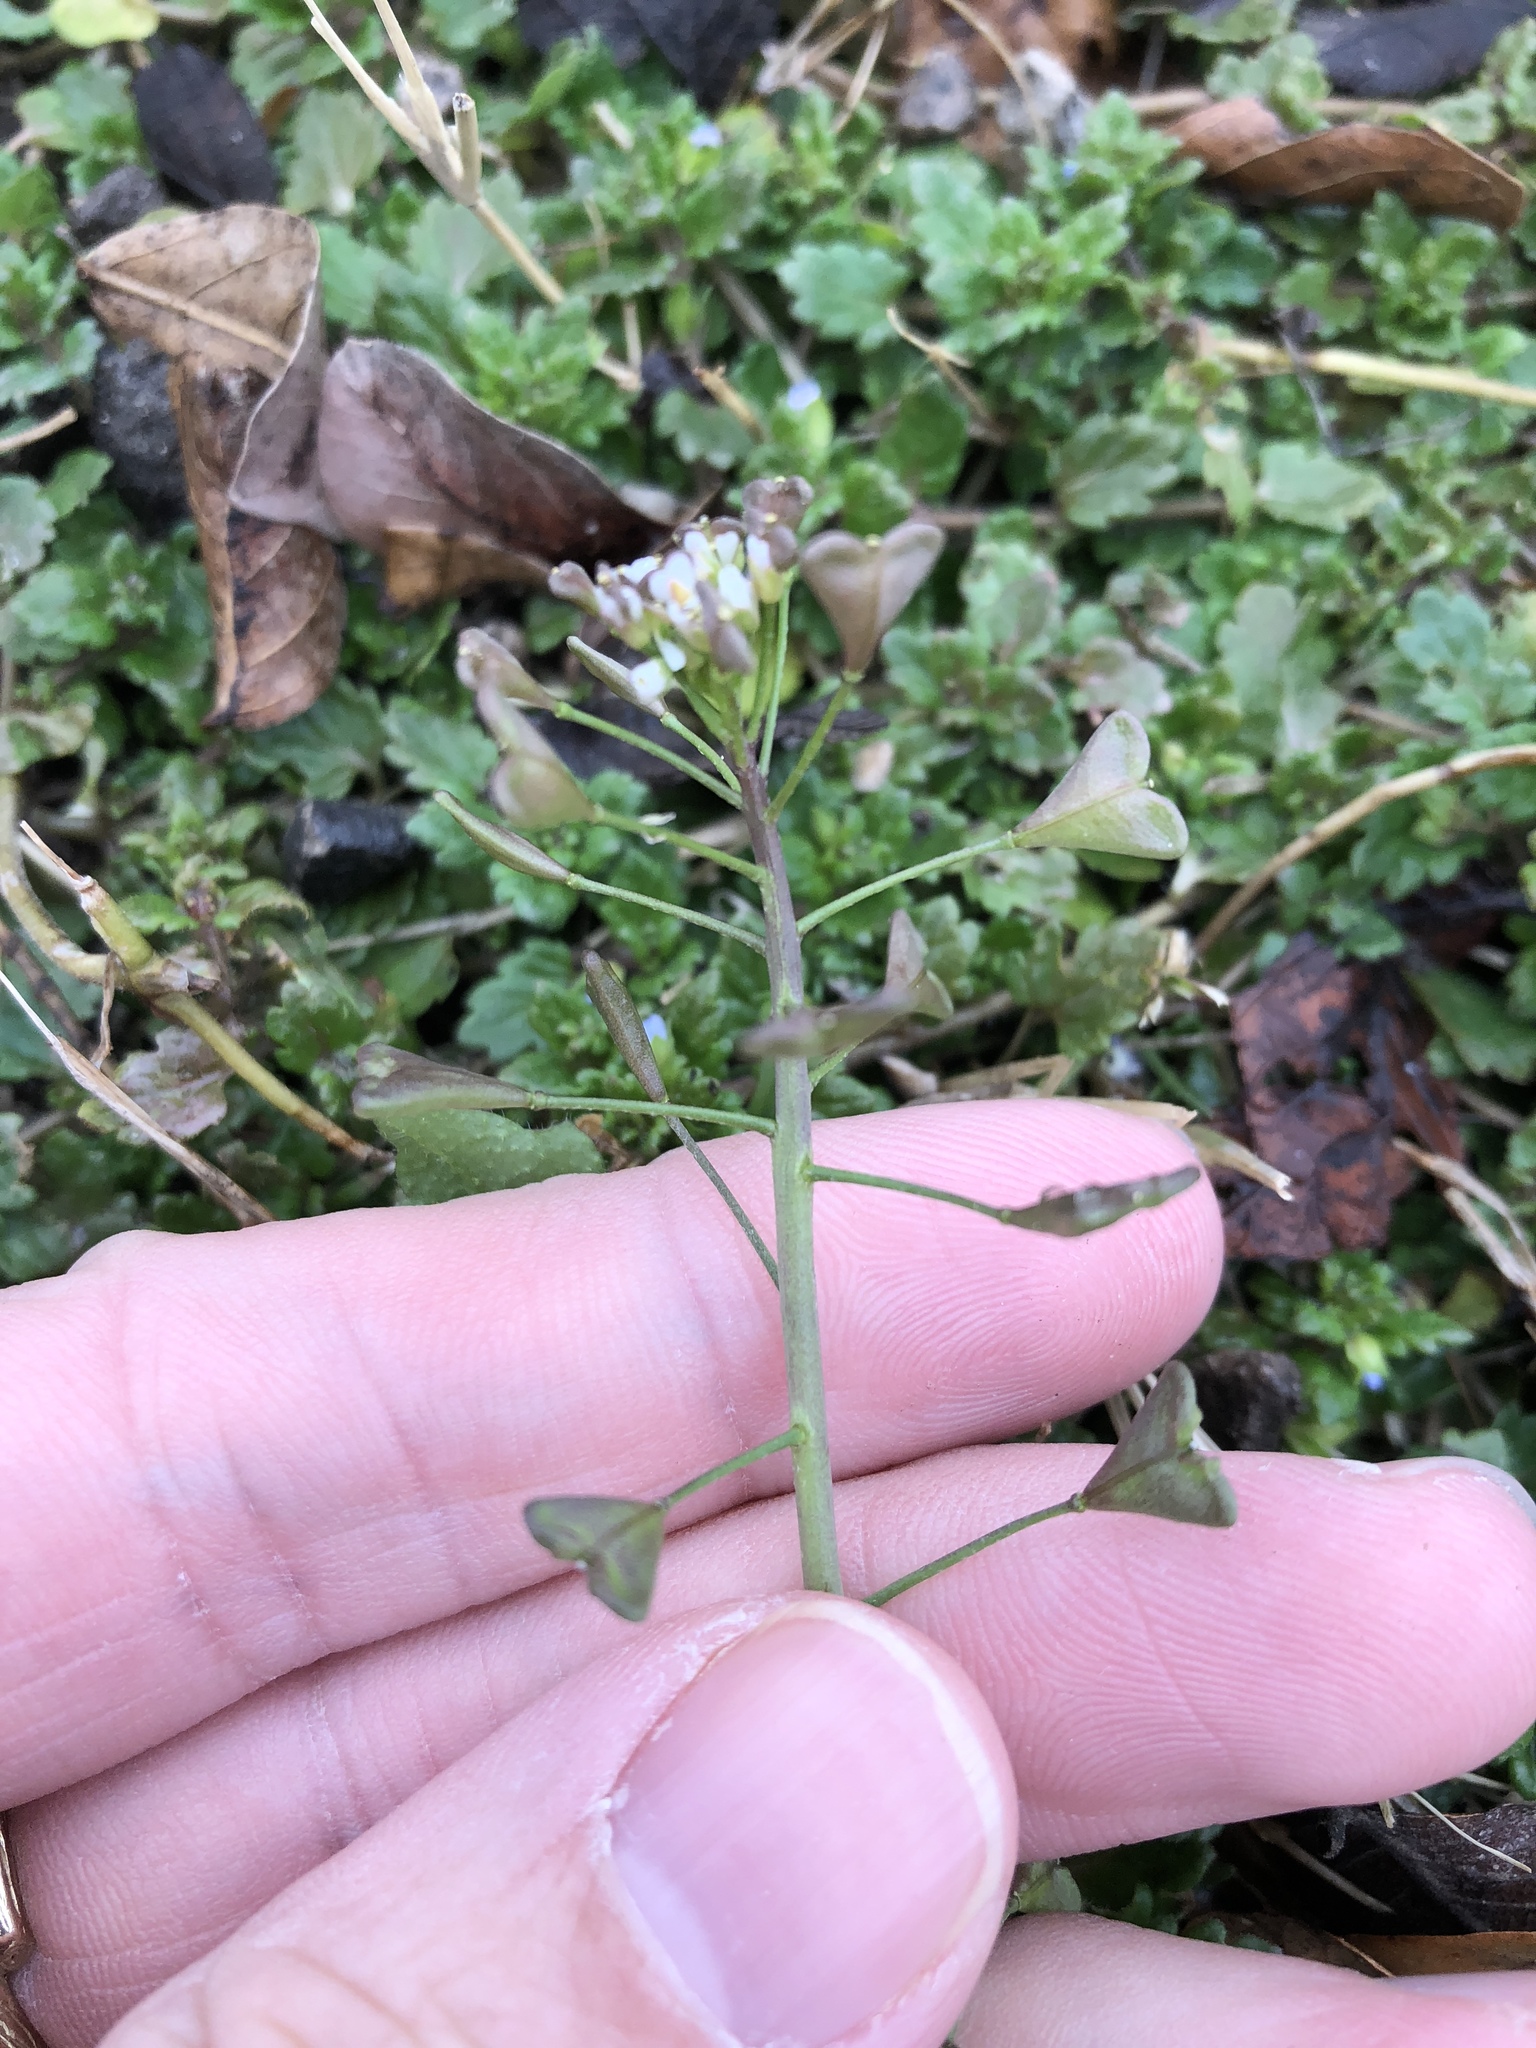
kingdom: Plantae
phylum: Tracheophyta
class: Magnoliopsida
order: Brassicales
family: Brassicaceae
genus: Capsella
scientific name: Capsella bursa-pastoris
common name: Shepherd's purse
